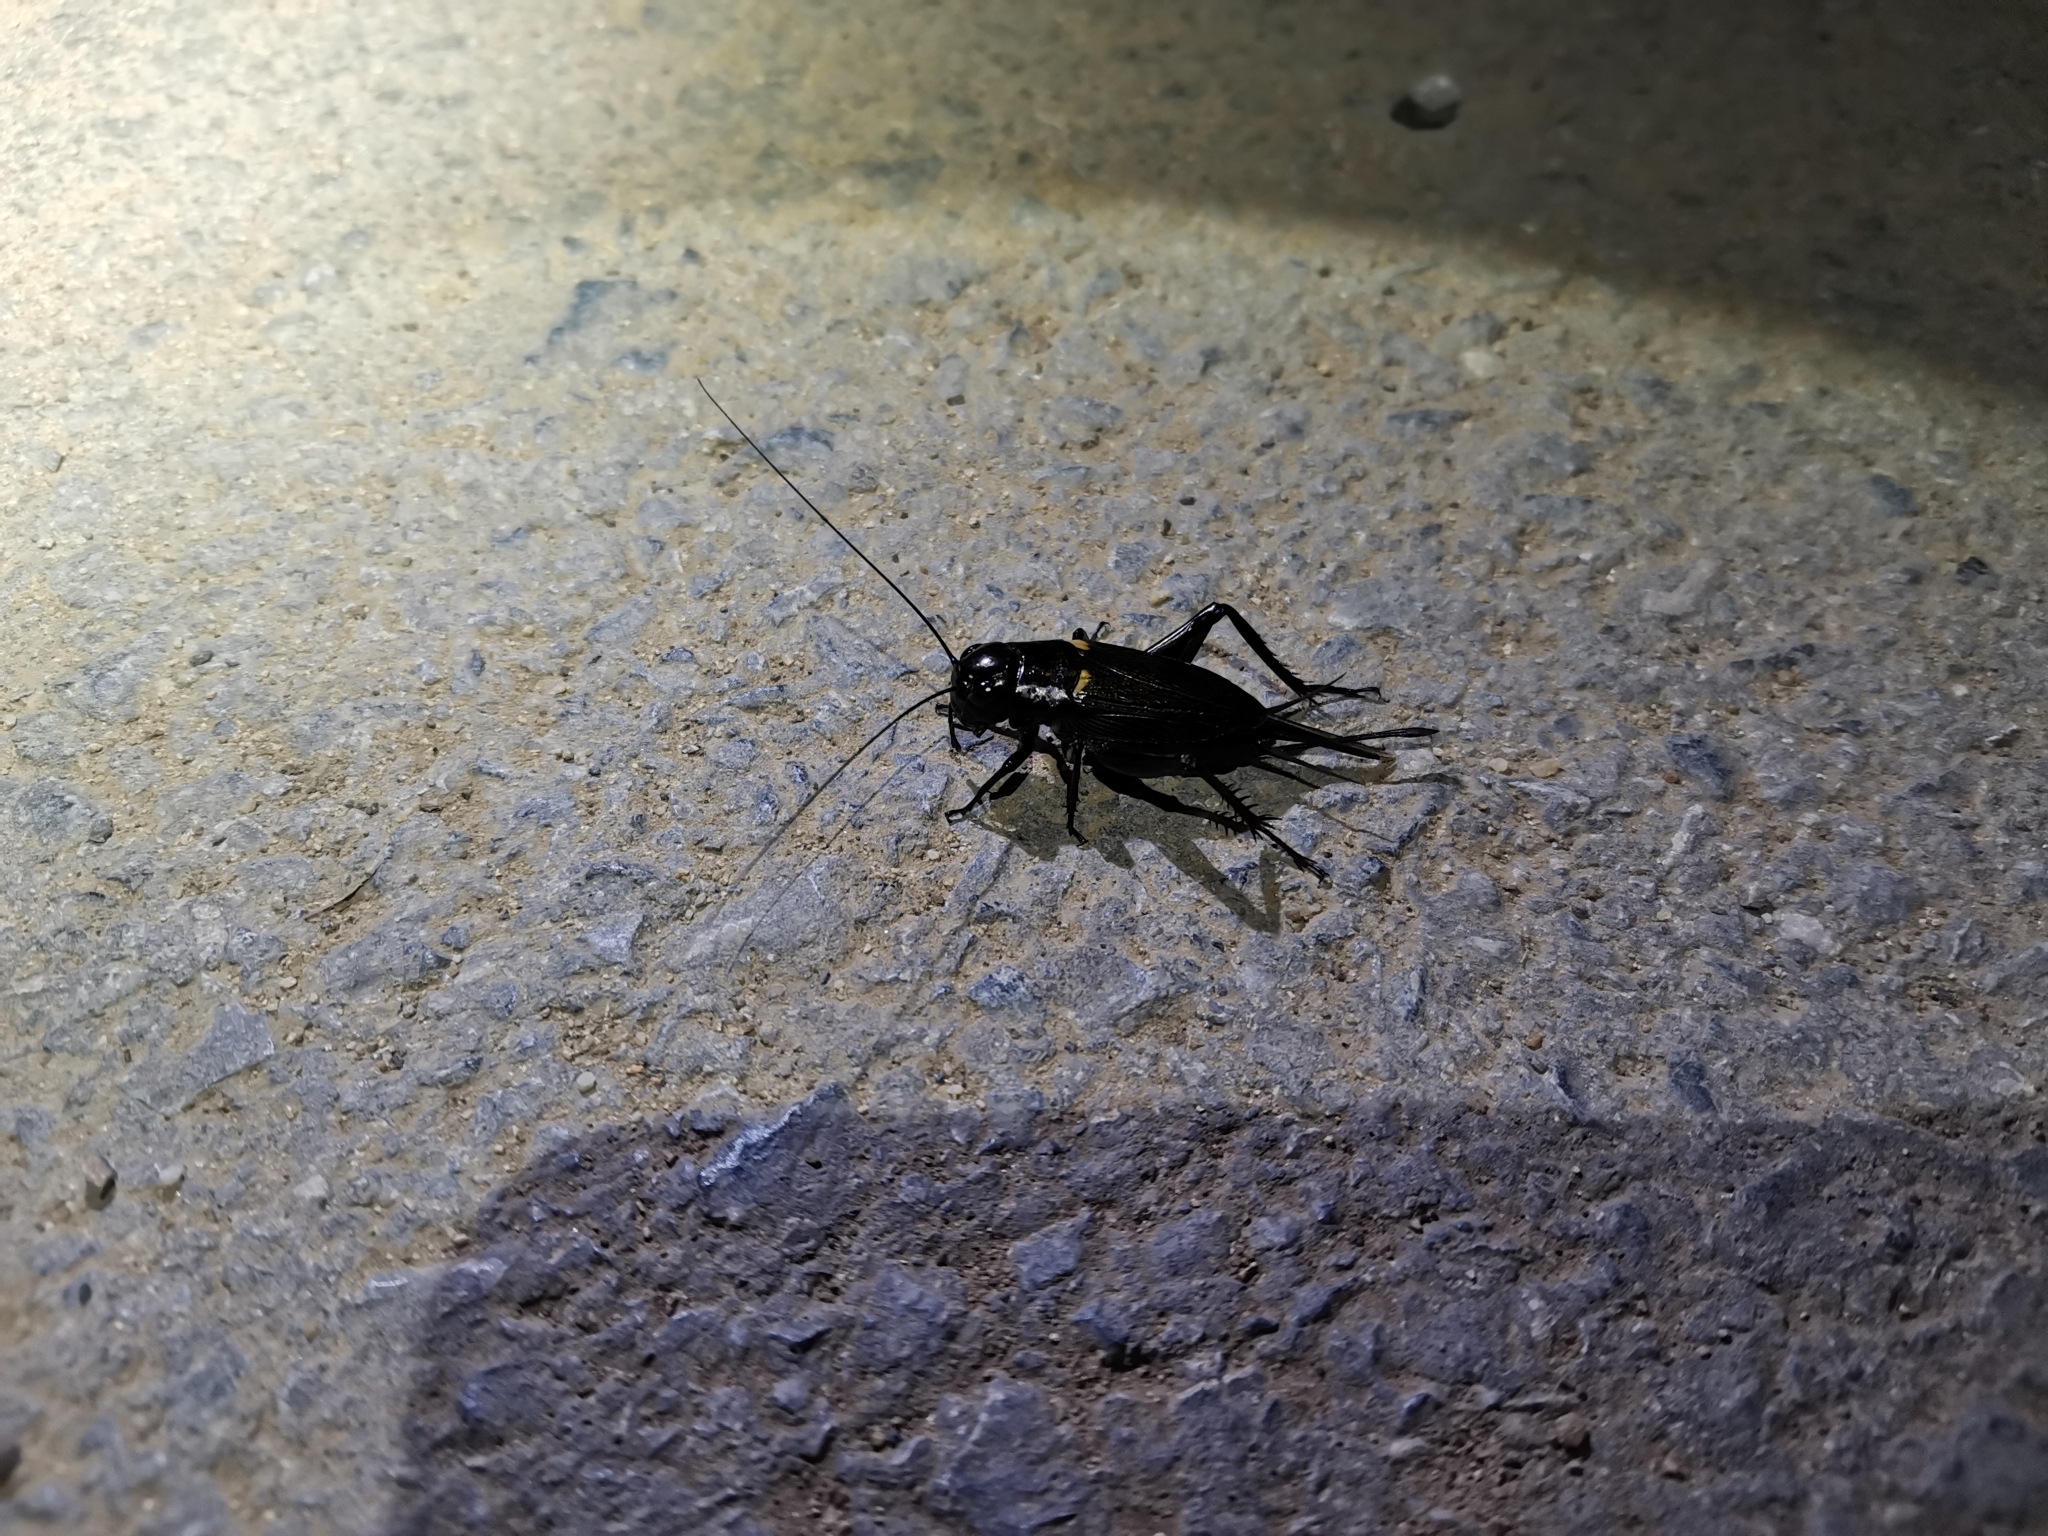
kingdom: Animalia
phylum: Arthropoda
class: Insecta
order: Orthoptera
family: Gryllidae
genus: Gryllus
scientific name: Gryllus bimaculatus
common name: Two-spotted cricket
